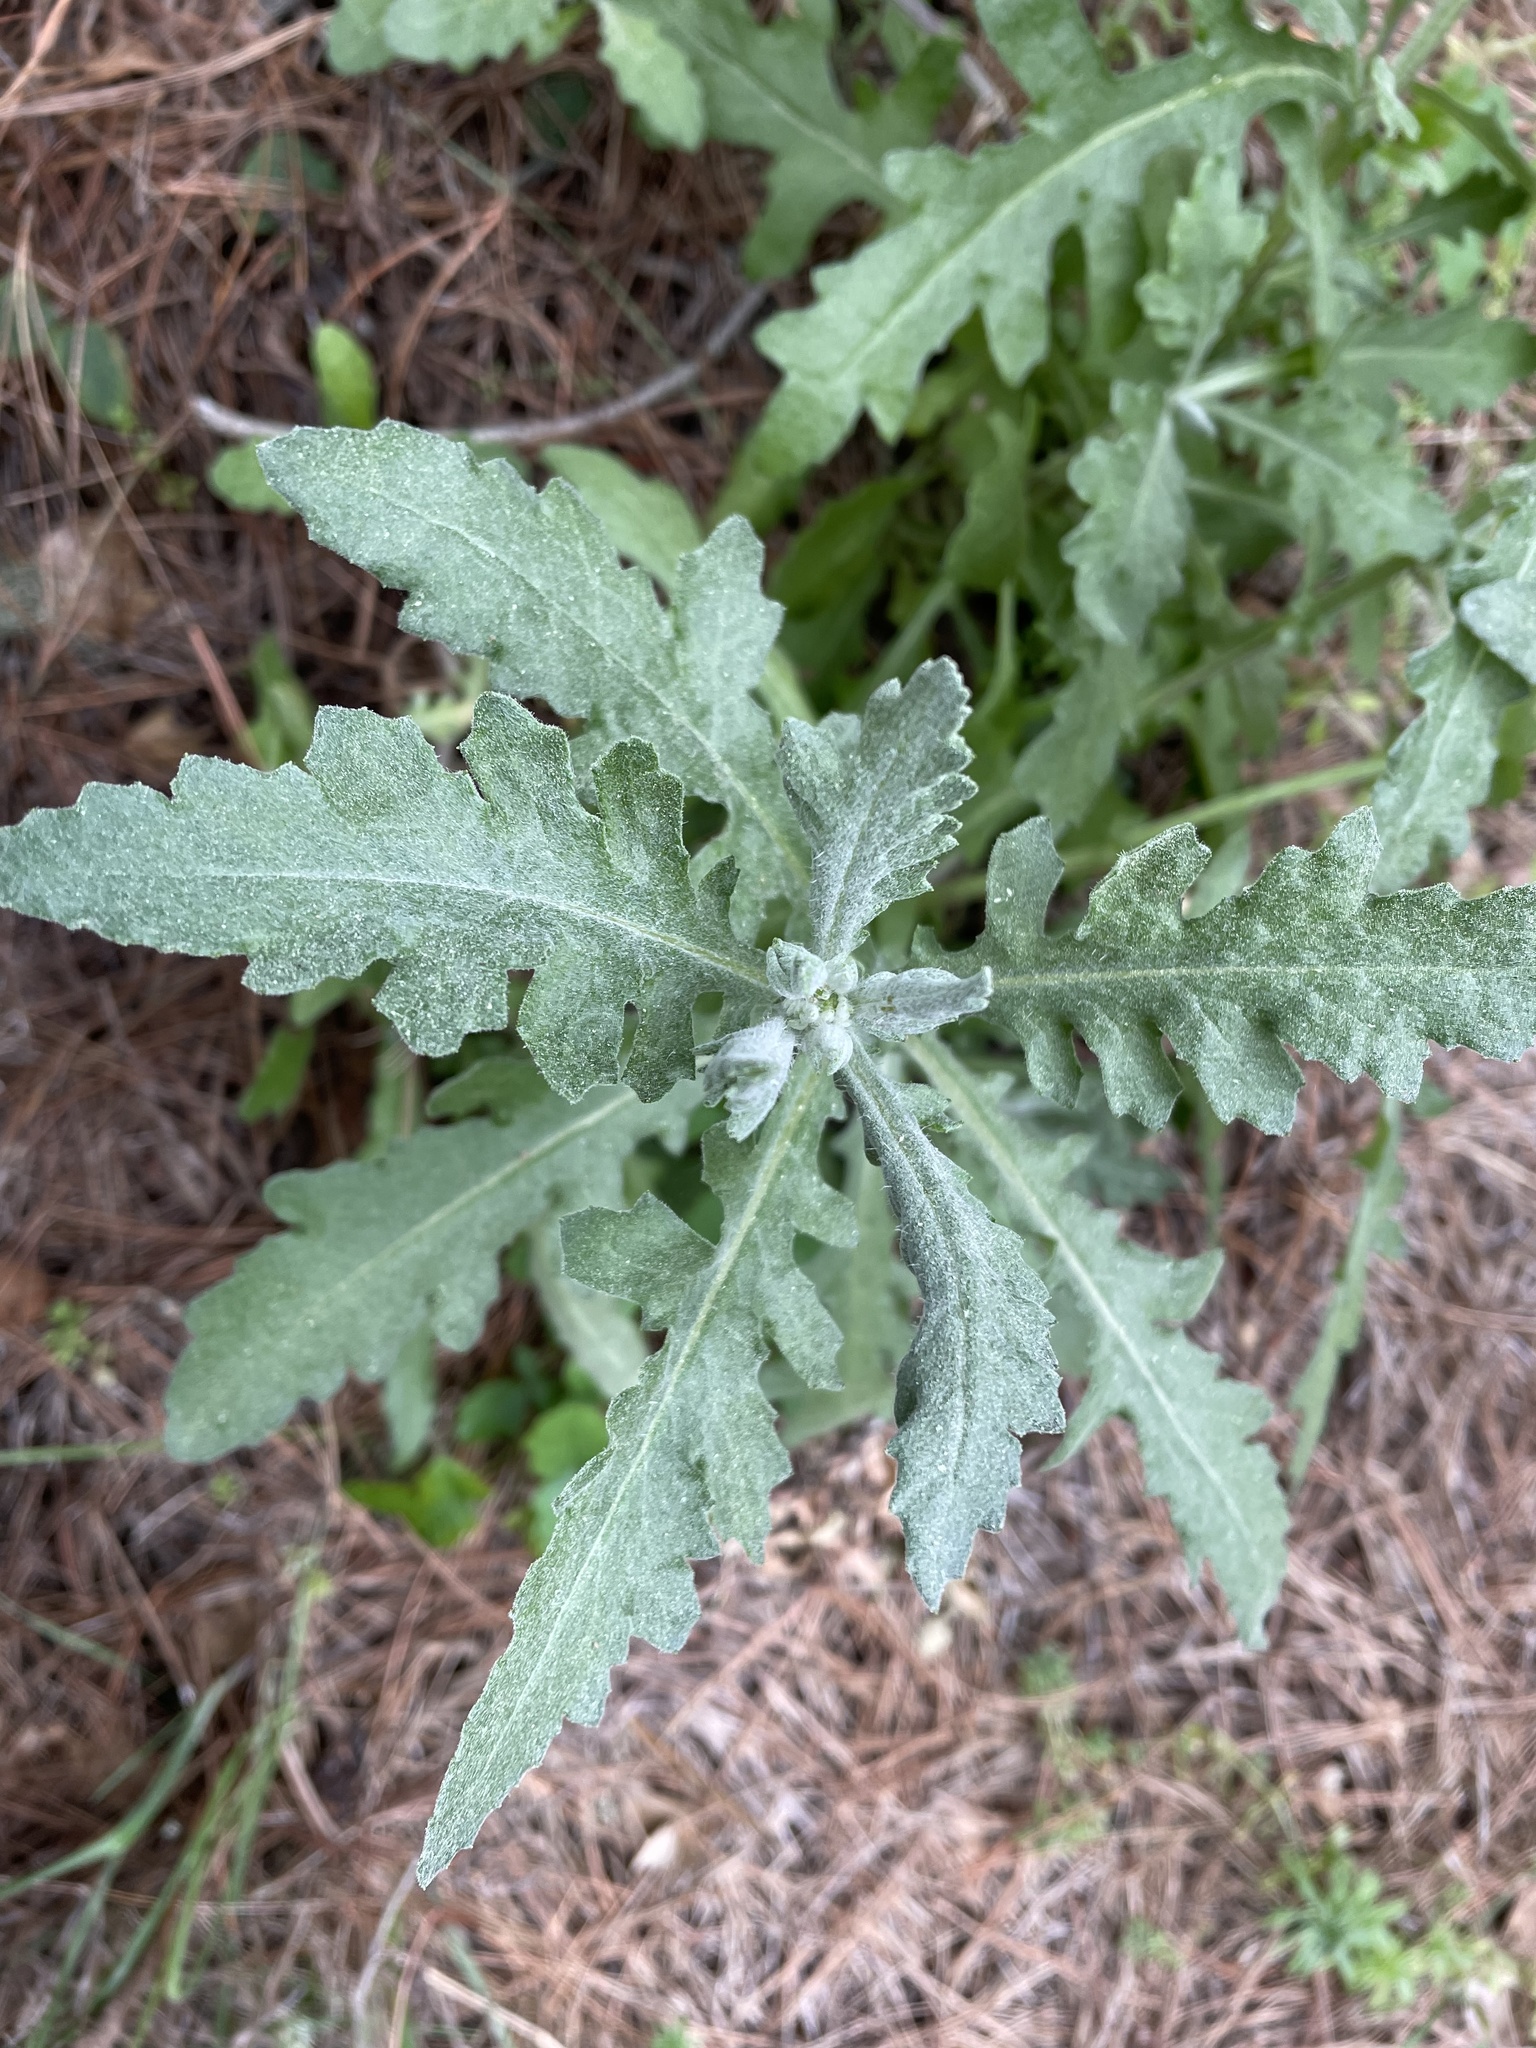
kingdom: Plantae
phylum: Tracheophyta
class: Magnoliopsida
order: Asterales
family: Asteraceae
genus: Senecio
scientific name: Senecio glomeratus
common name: Cutleaf burnweed
